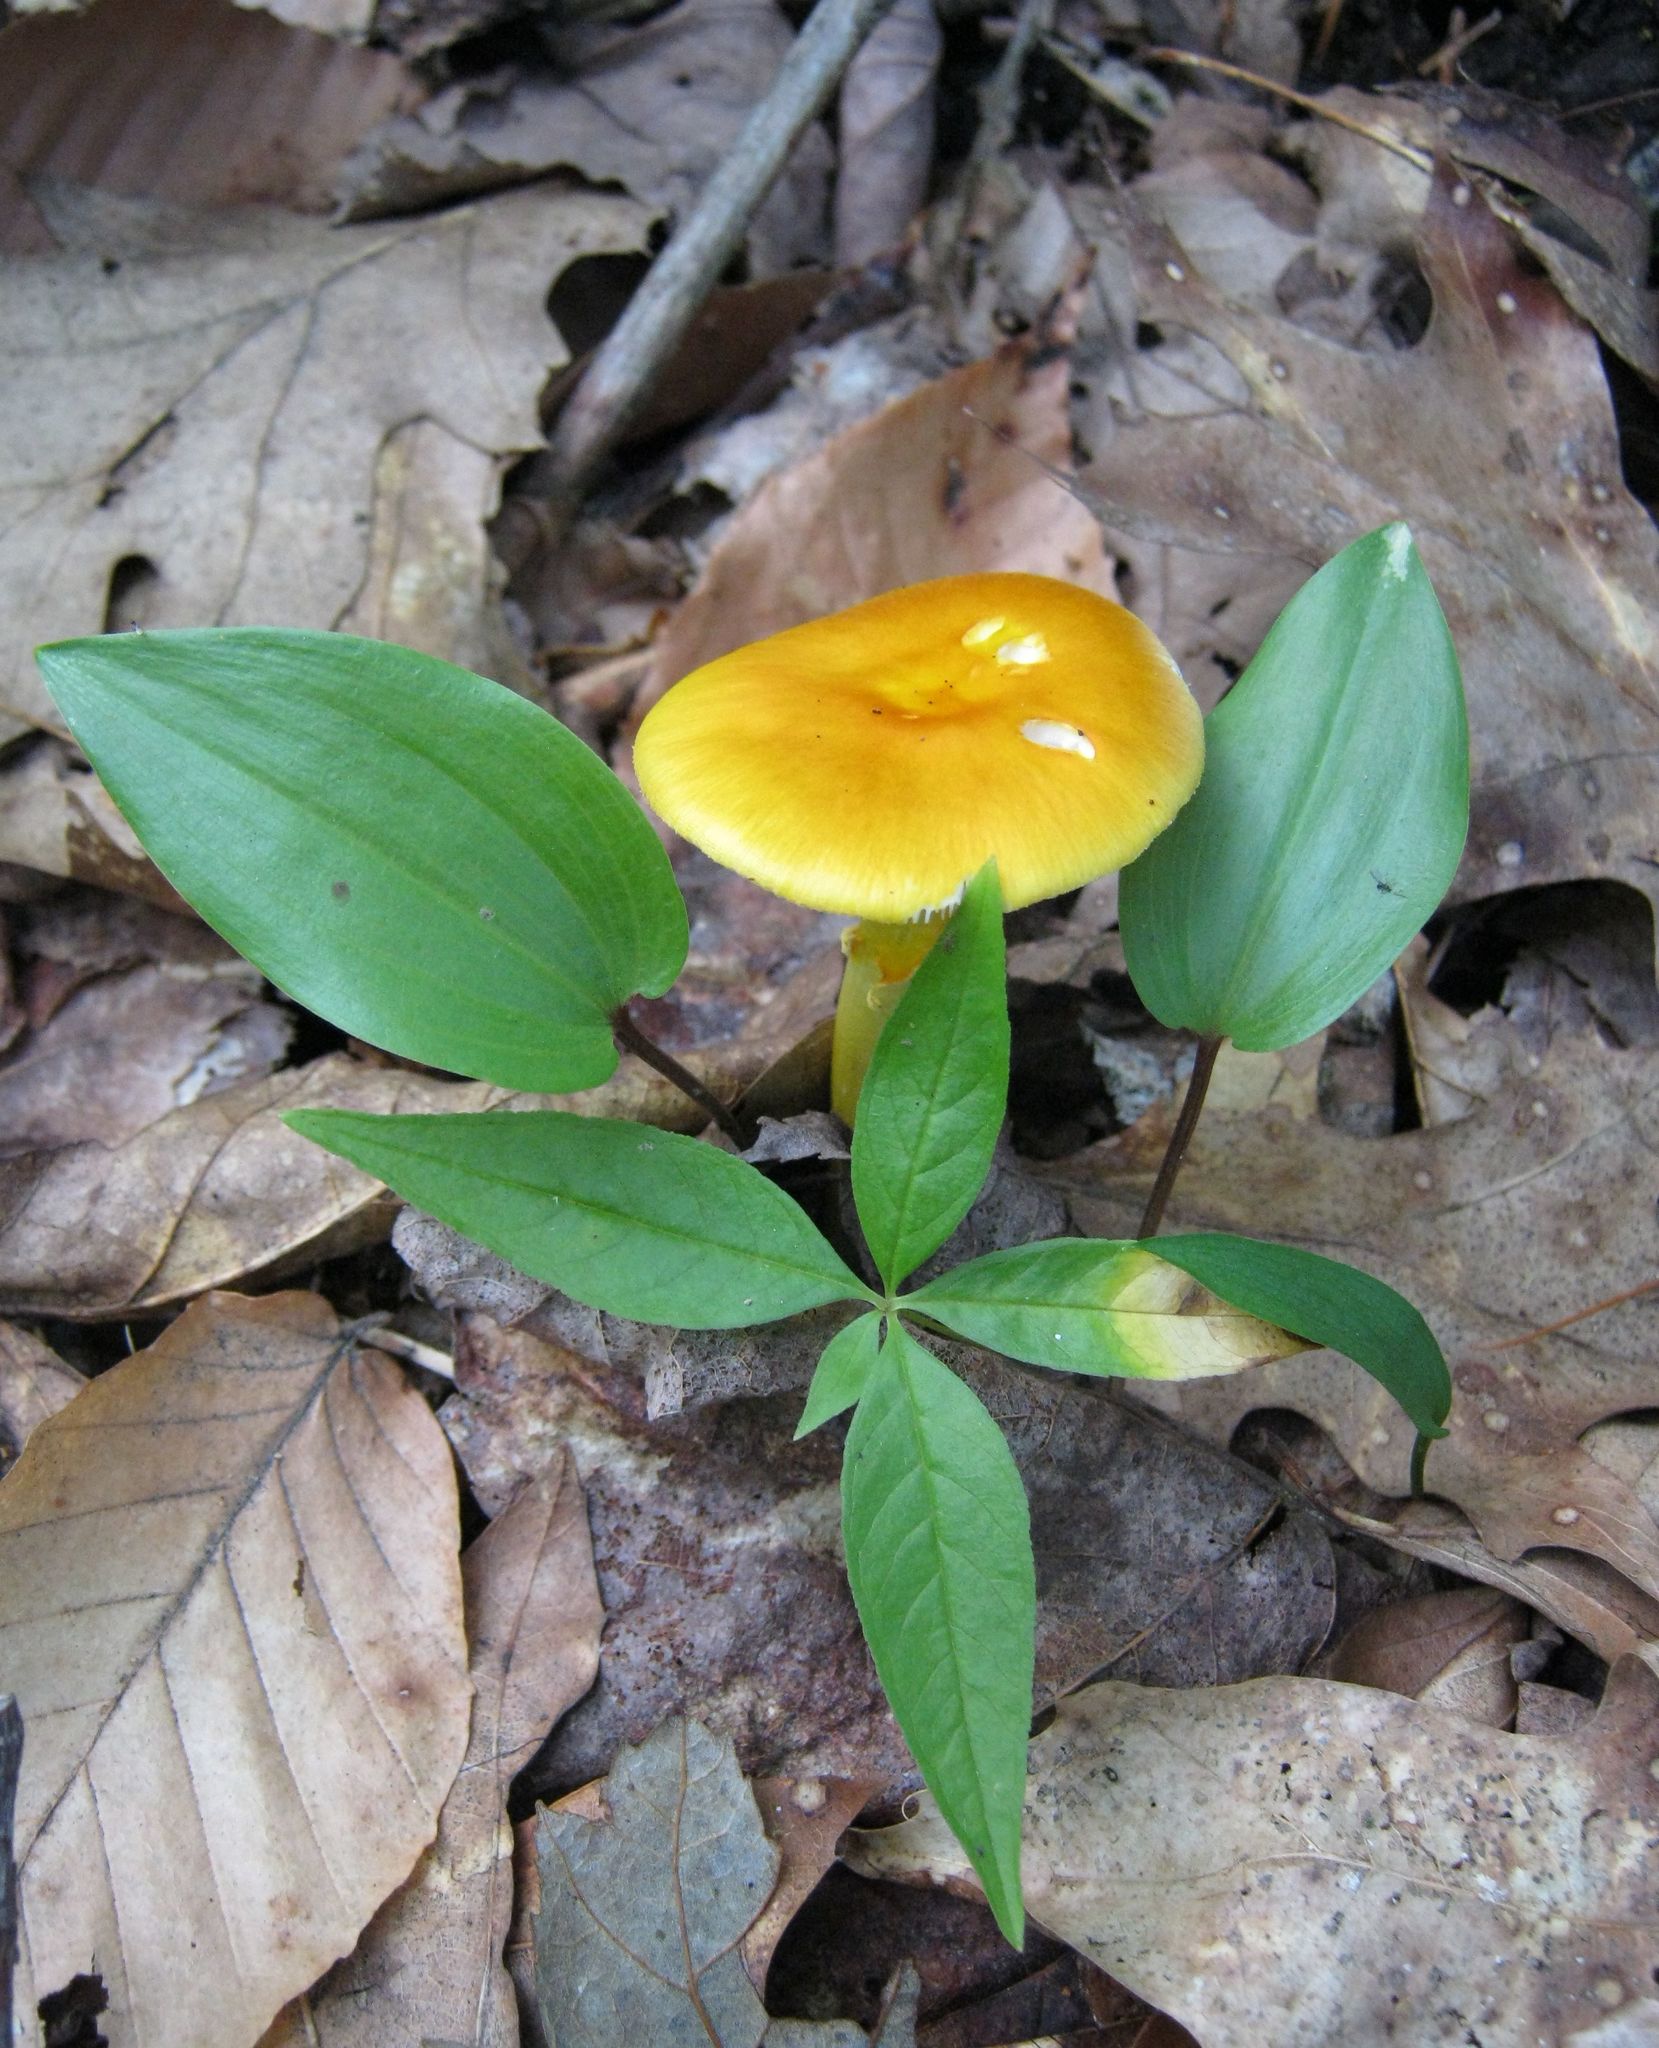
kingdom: Fungi
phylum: Basidiomycota
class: Agaricomycetes
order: Agaricales
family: Amanitaceae
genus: Amanita
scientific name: Amanita flavoconia
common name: Yellow patches
